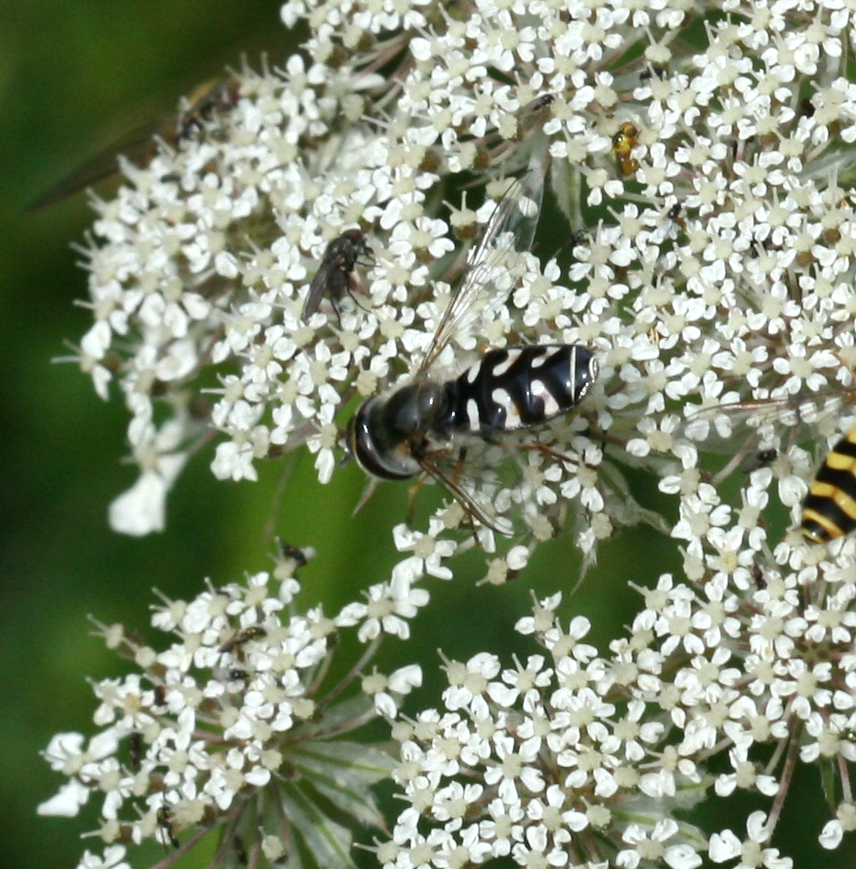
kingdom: Animalia
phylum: Arthropoda
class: Insecta
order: Diptera
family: Syrphidae
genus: Scaeva
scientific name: Scaeva pyrastri
